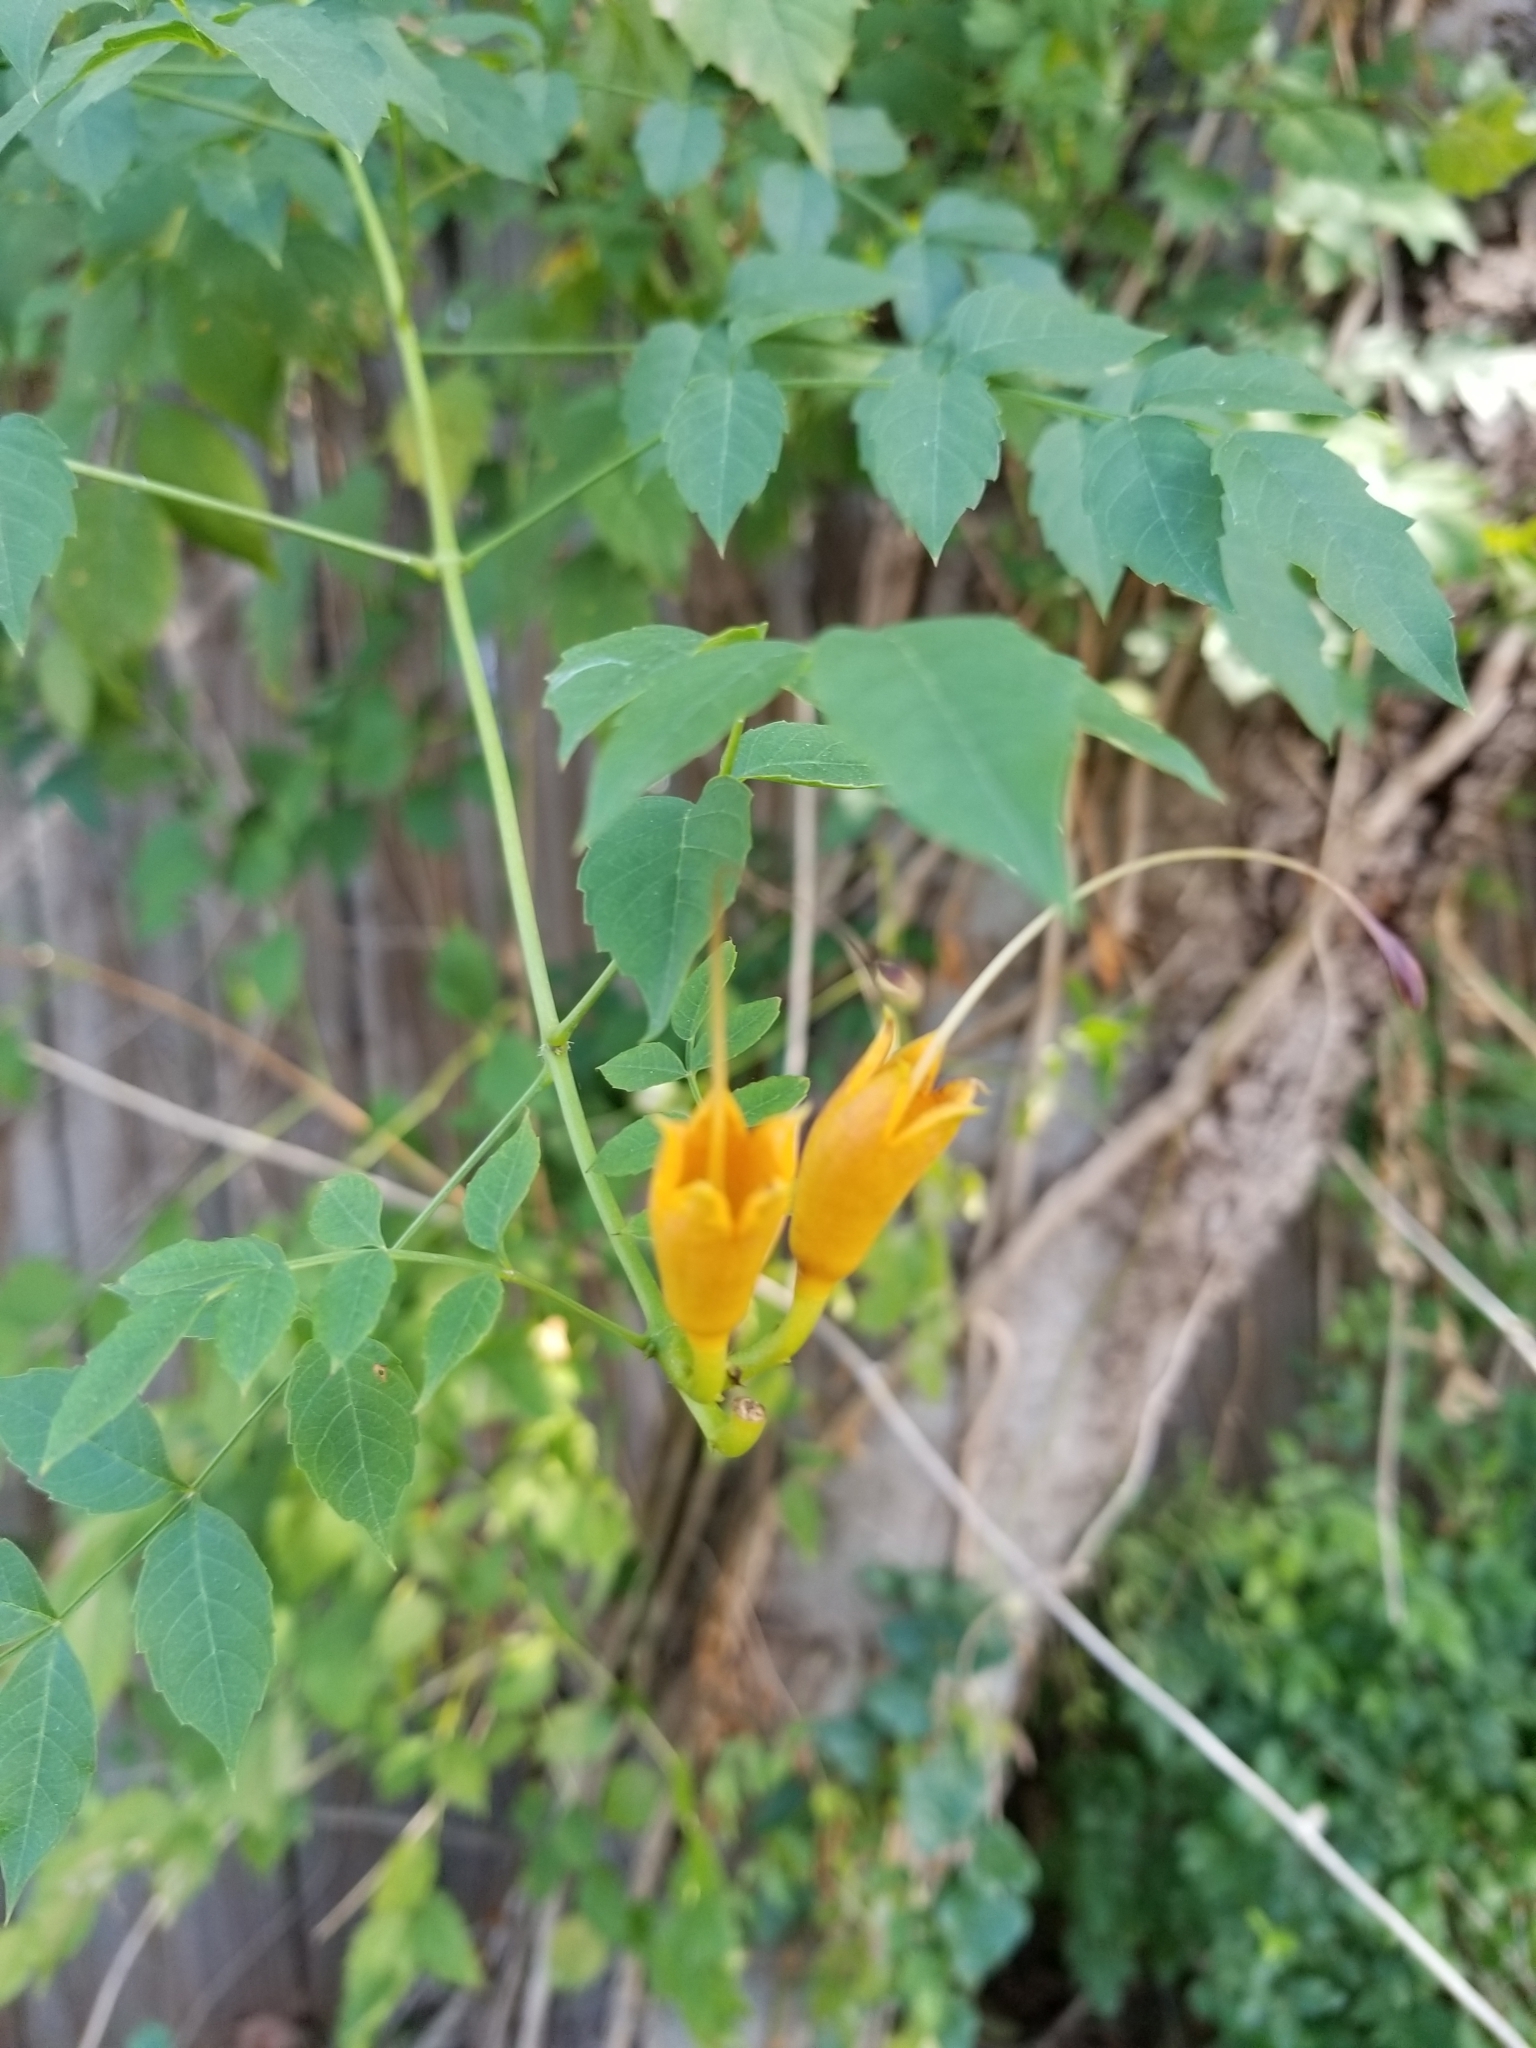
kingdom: Plantae
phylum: Tracheophyta
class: Magnoliopsida
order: Lamiales
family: Bignoniaceae
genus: Campsis
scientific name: Campsis radicans
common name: Trumpet-creeper
